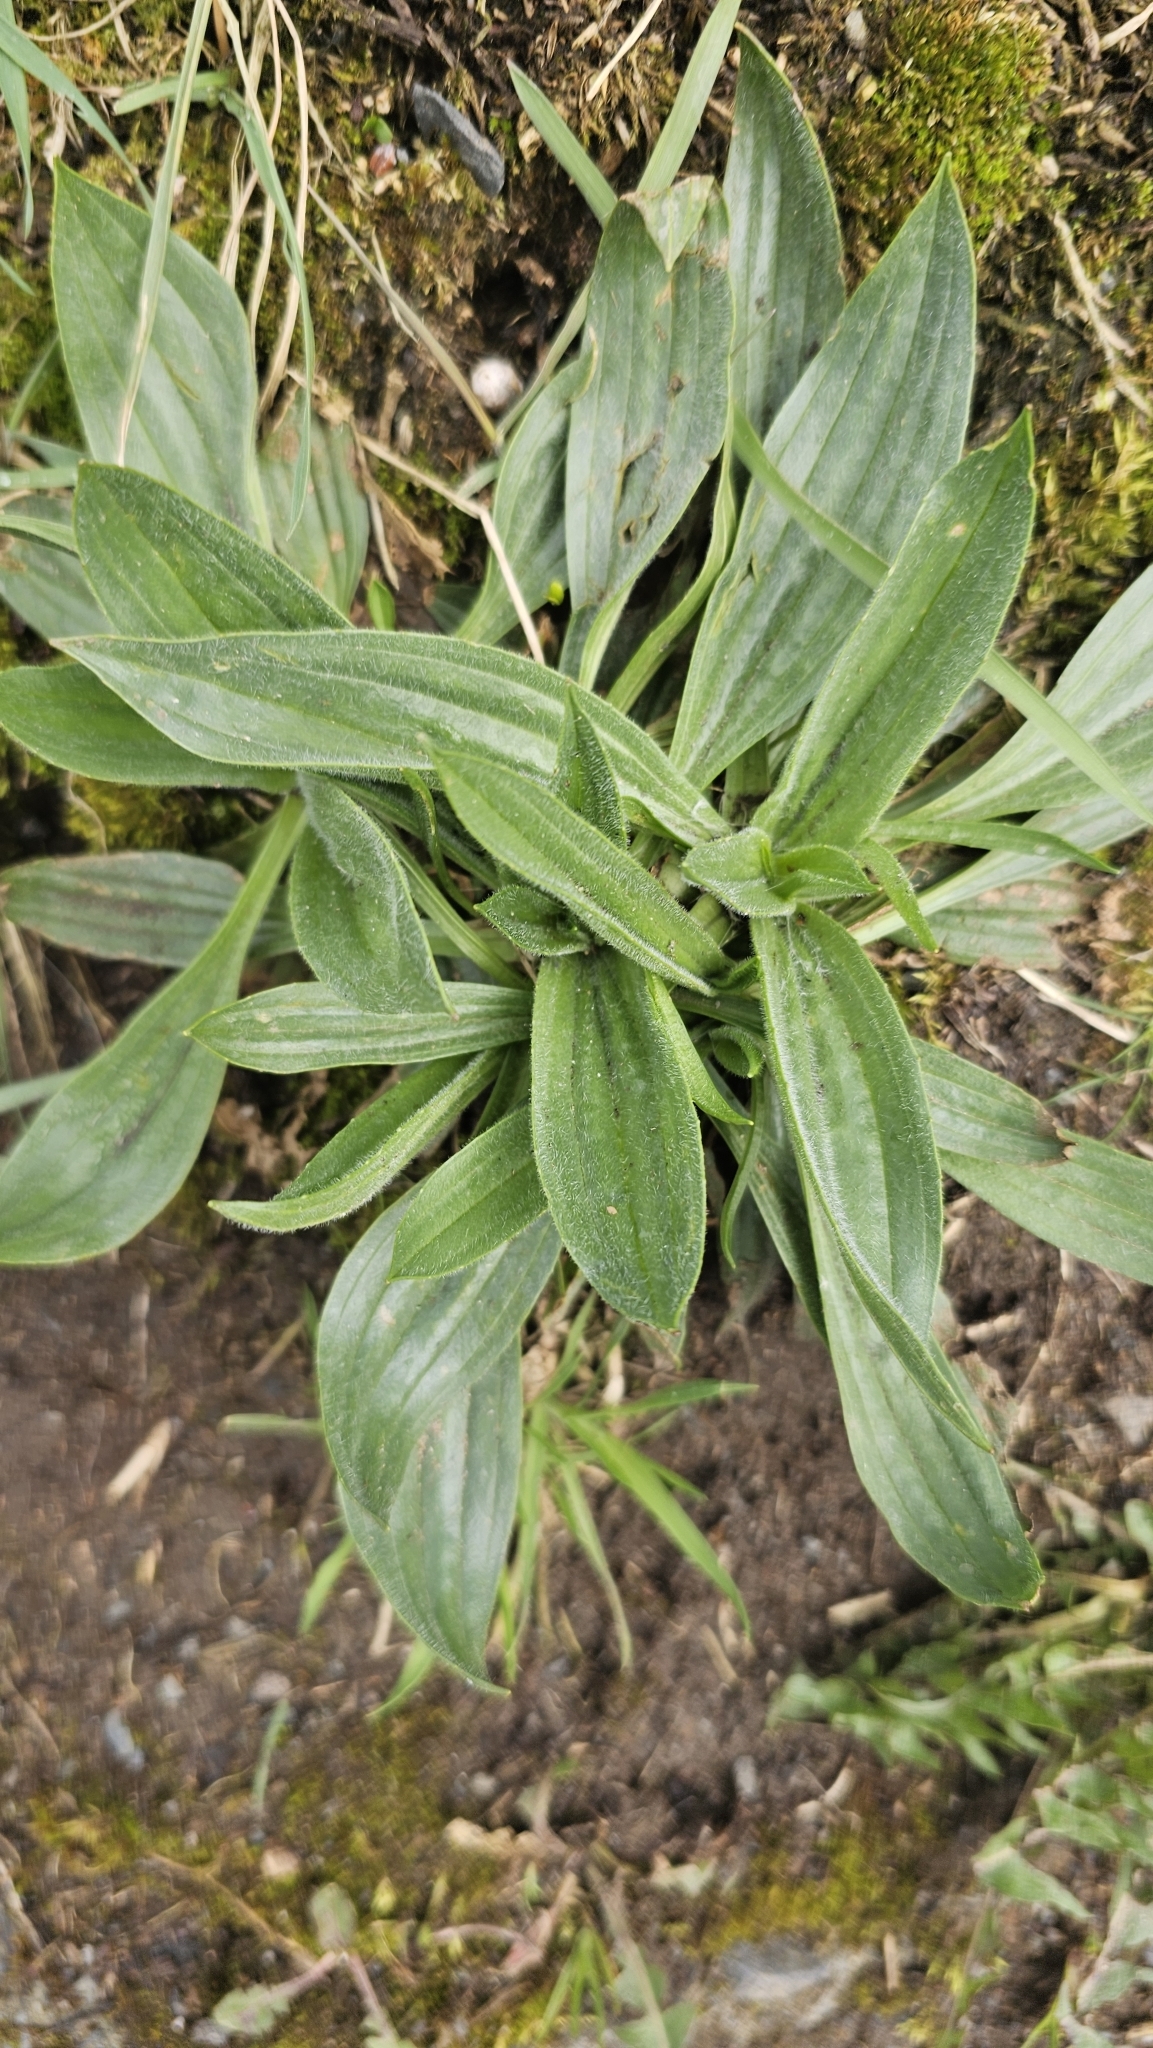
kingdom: Plantae
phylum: Tracheophyta
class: Magnoliopsida
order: Lamiales
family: Plantaginaceae
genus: Plantago
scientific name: Plantago lanceolata
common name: Ribwort plantain
